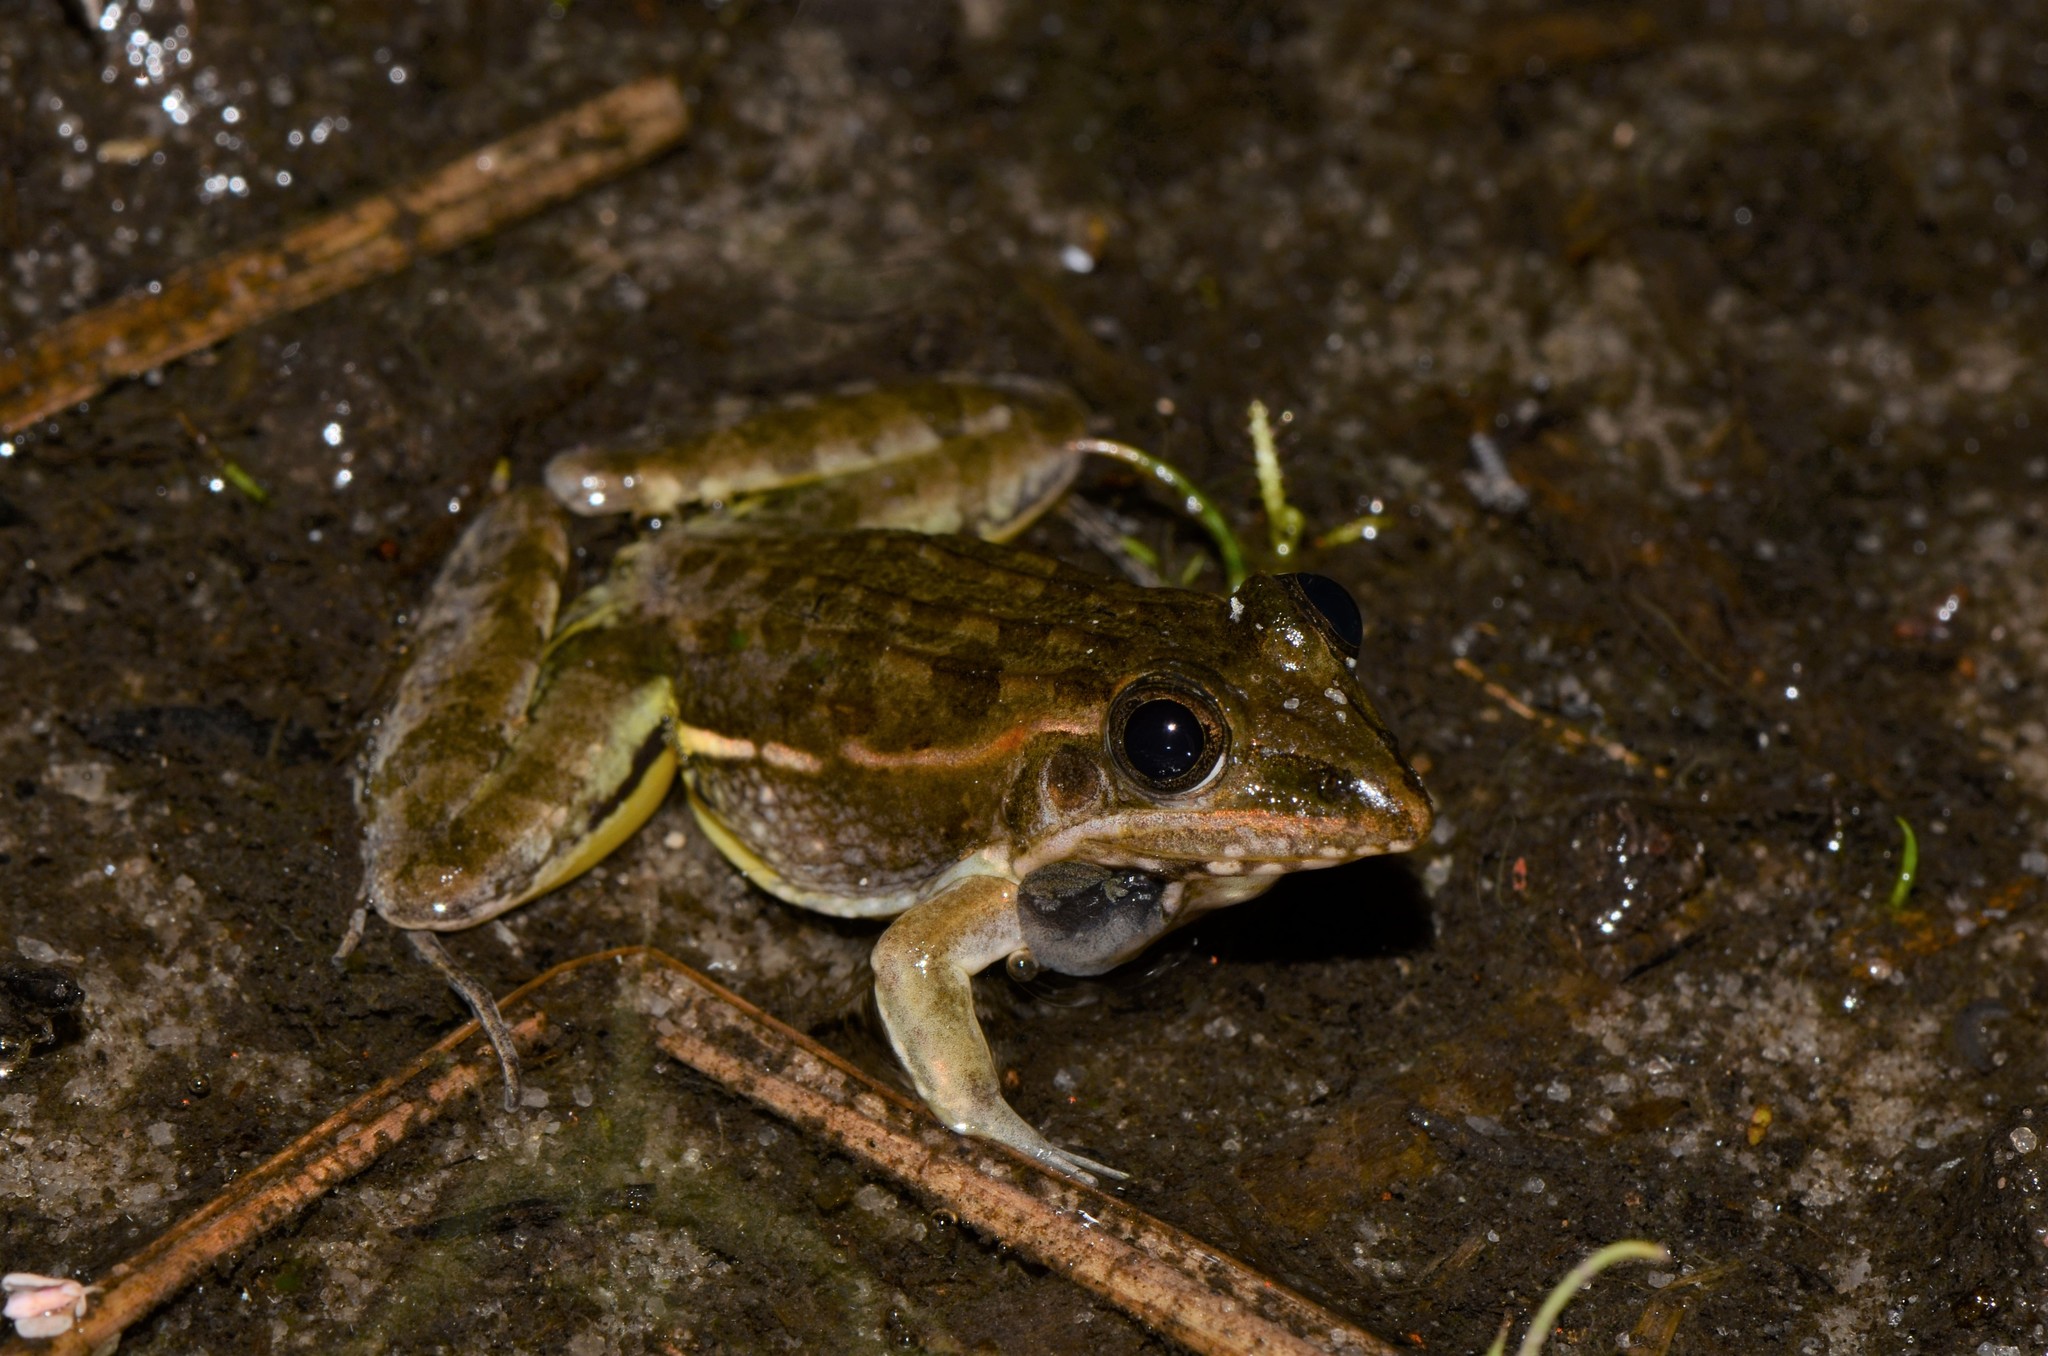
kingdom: Animalia
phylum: Chordata
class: Amphibia
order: Anura
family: Ptychadenidae
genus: Ptychadena
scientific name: Ptychadena taenioscelis
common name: Lukula grassland frog
